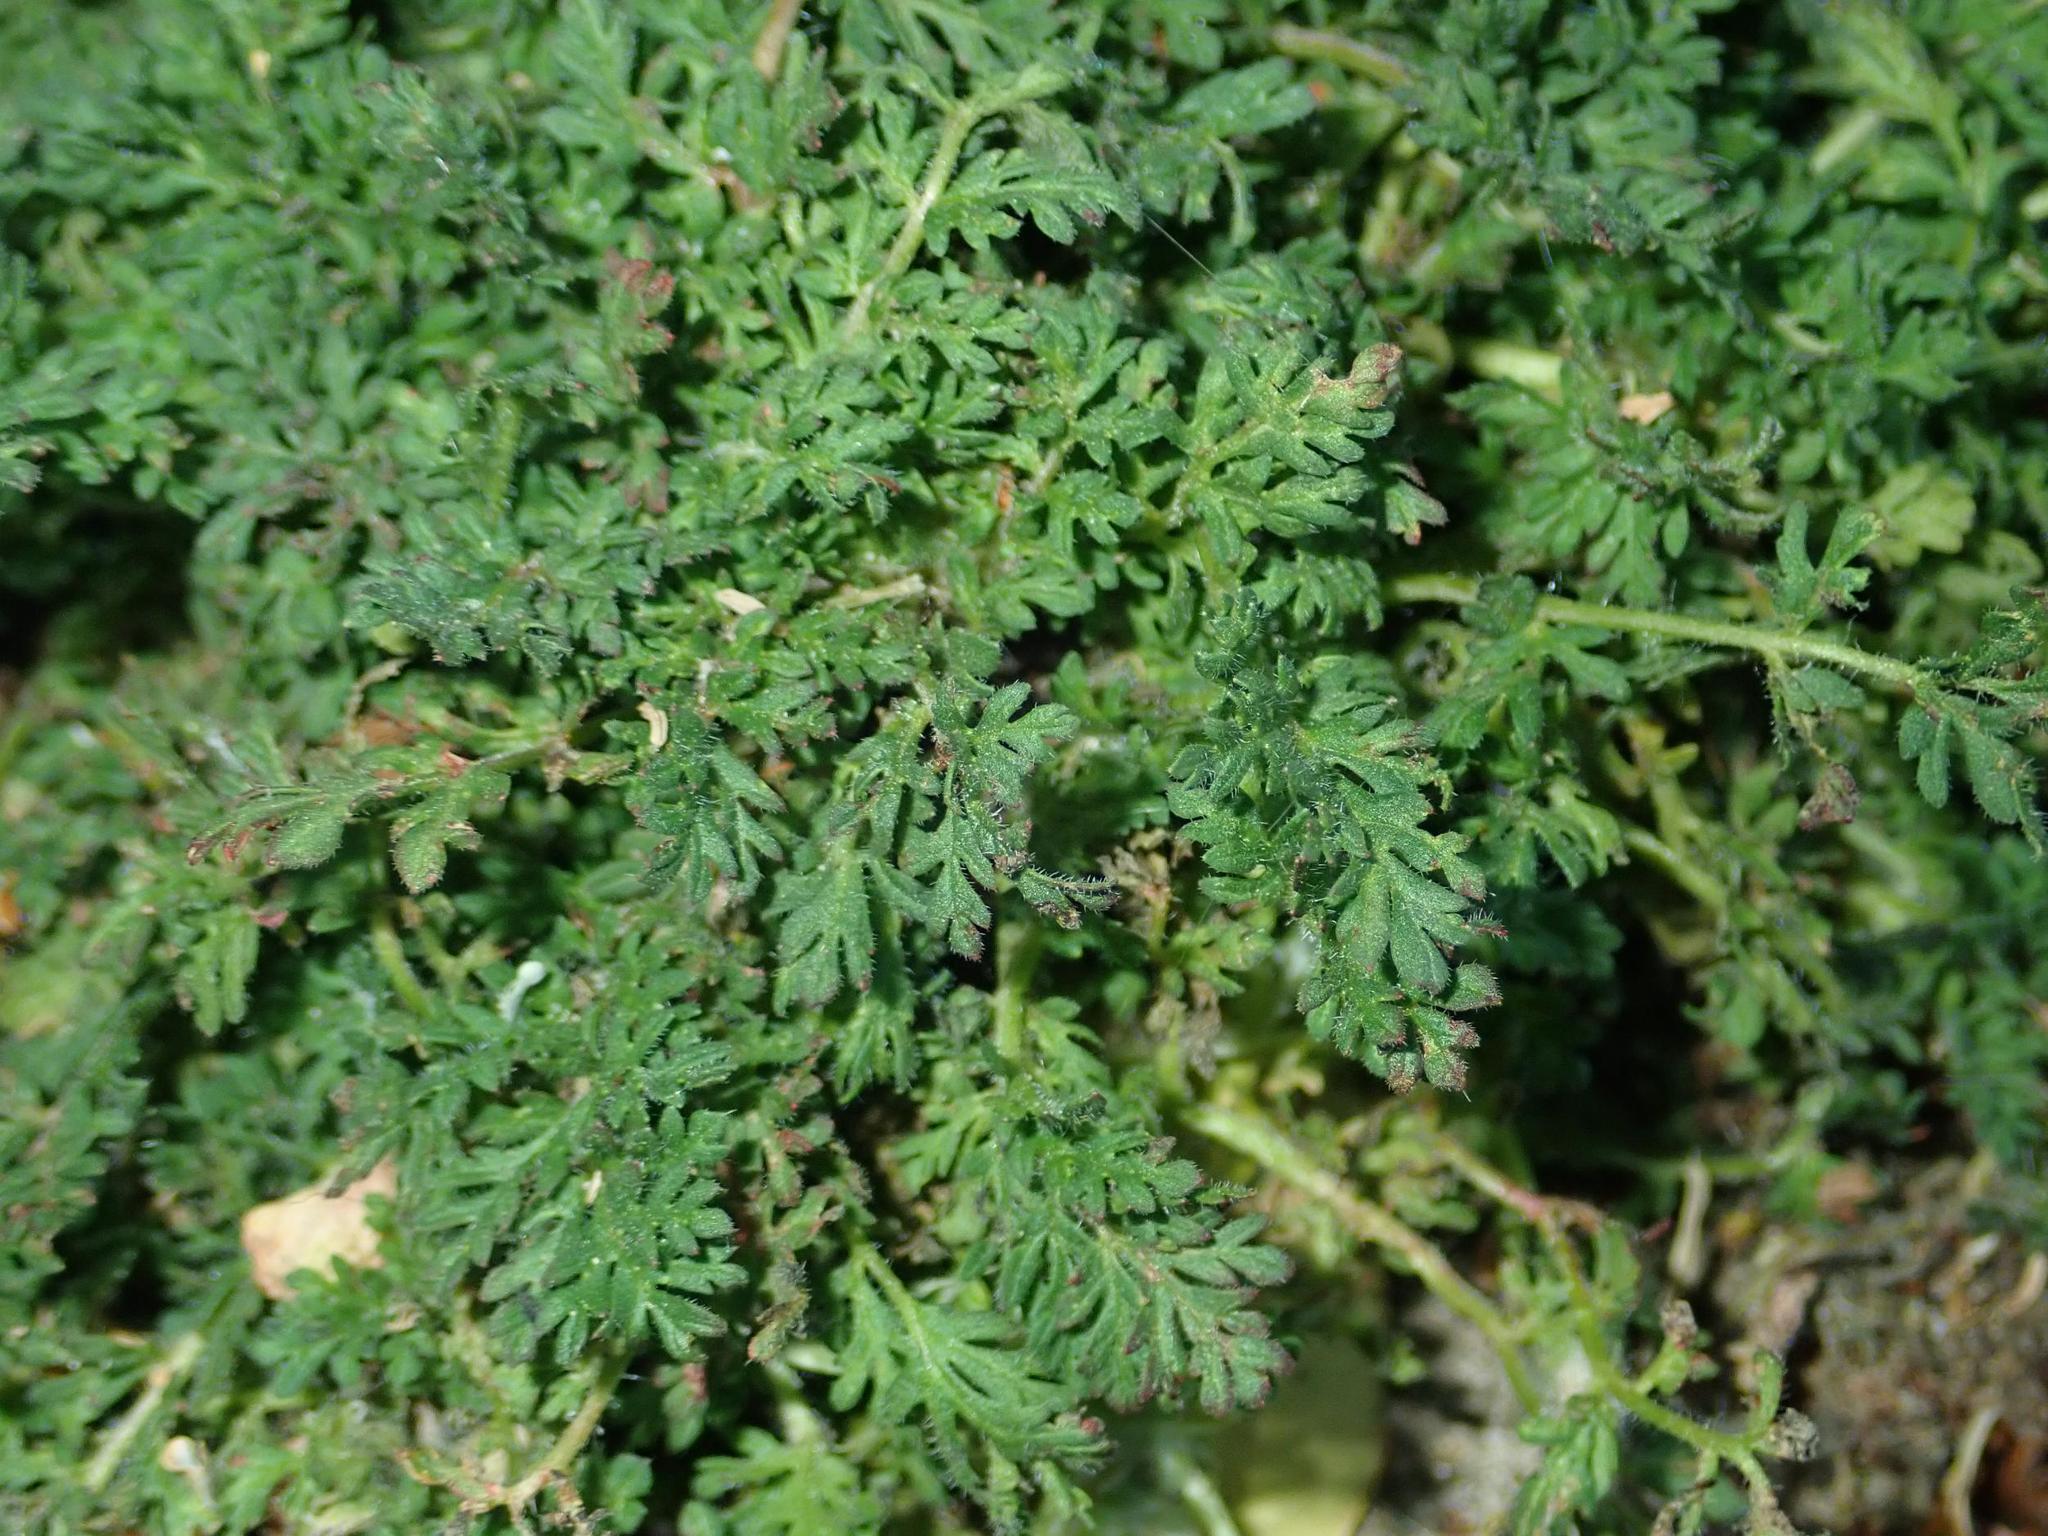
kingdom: Plantae
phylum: Tracheophyta
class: Magnoliopsida
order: Geraniales
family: Geraniaceae
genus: Erodium
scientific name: Erodium cicutarium
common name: Common stork's-bill
